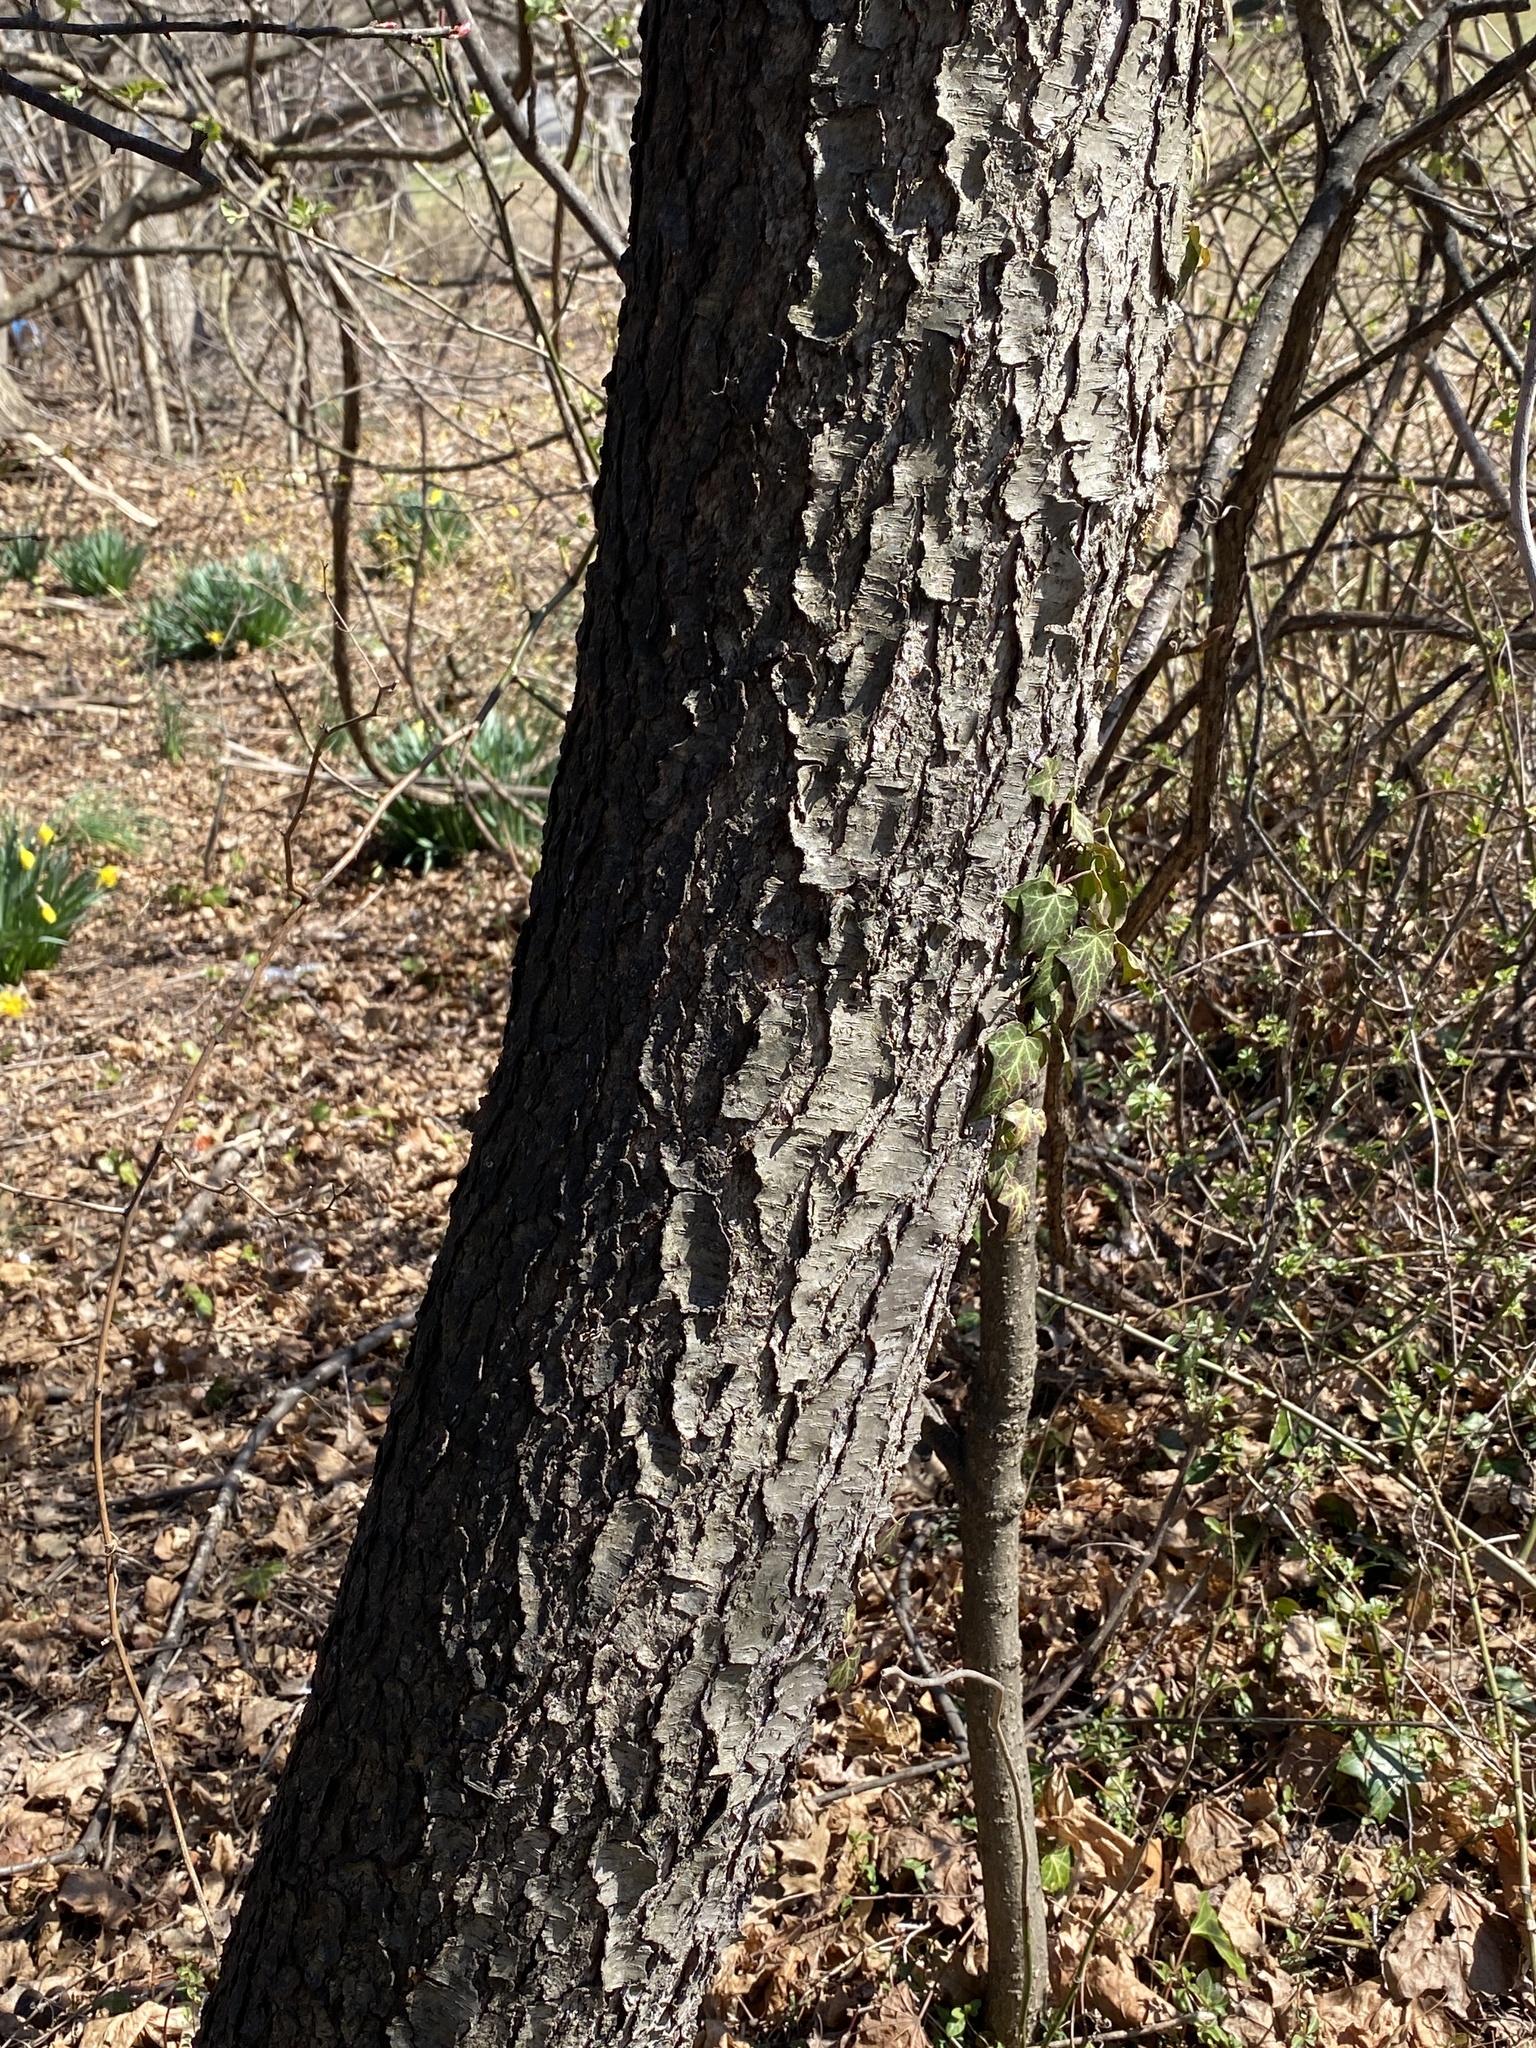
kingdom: Plantae
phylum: Tracheophyta
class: Magnoliopsida
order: Rosales
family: Rosaceae
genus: Prunus
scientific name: Prunus serotina
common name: Black cherry
